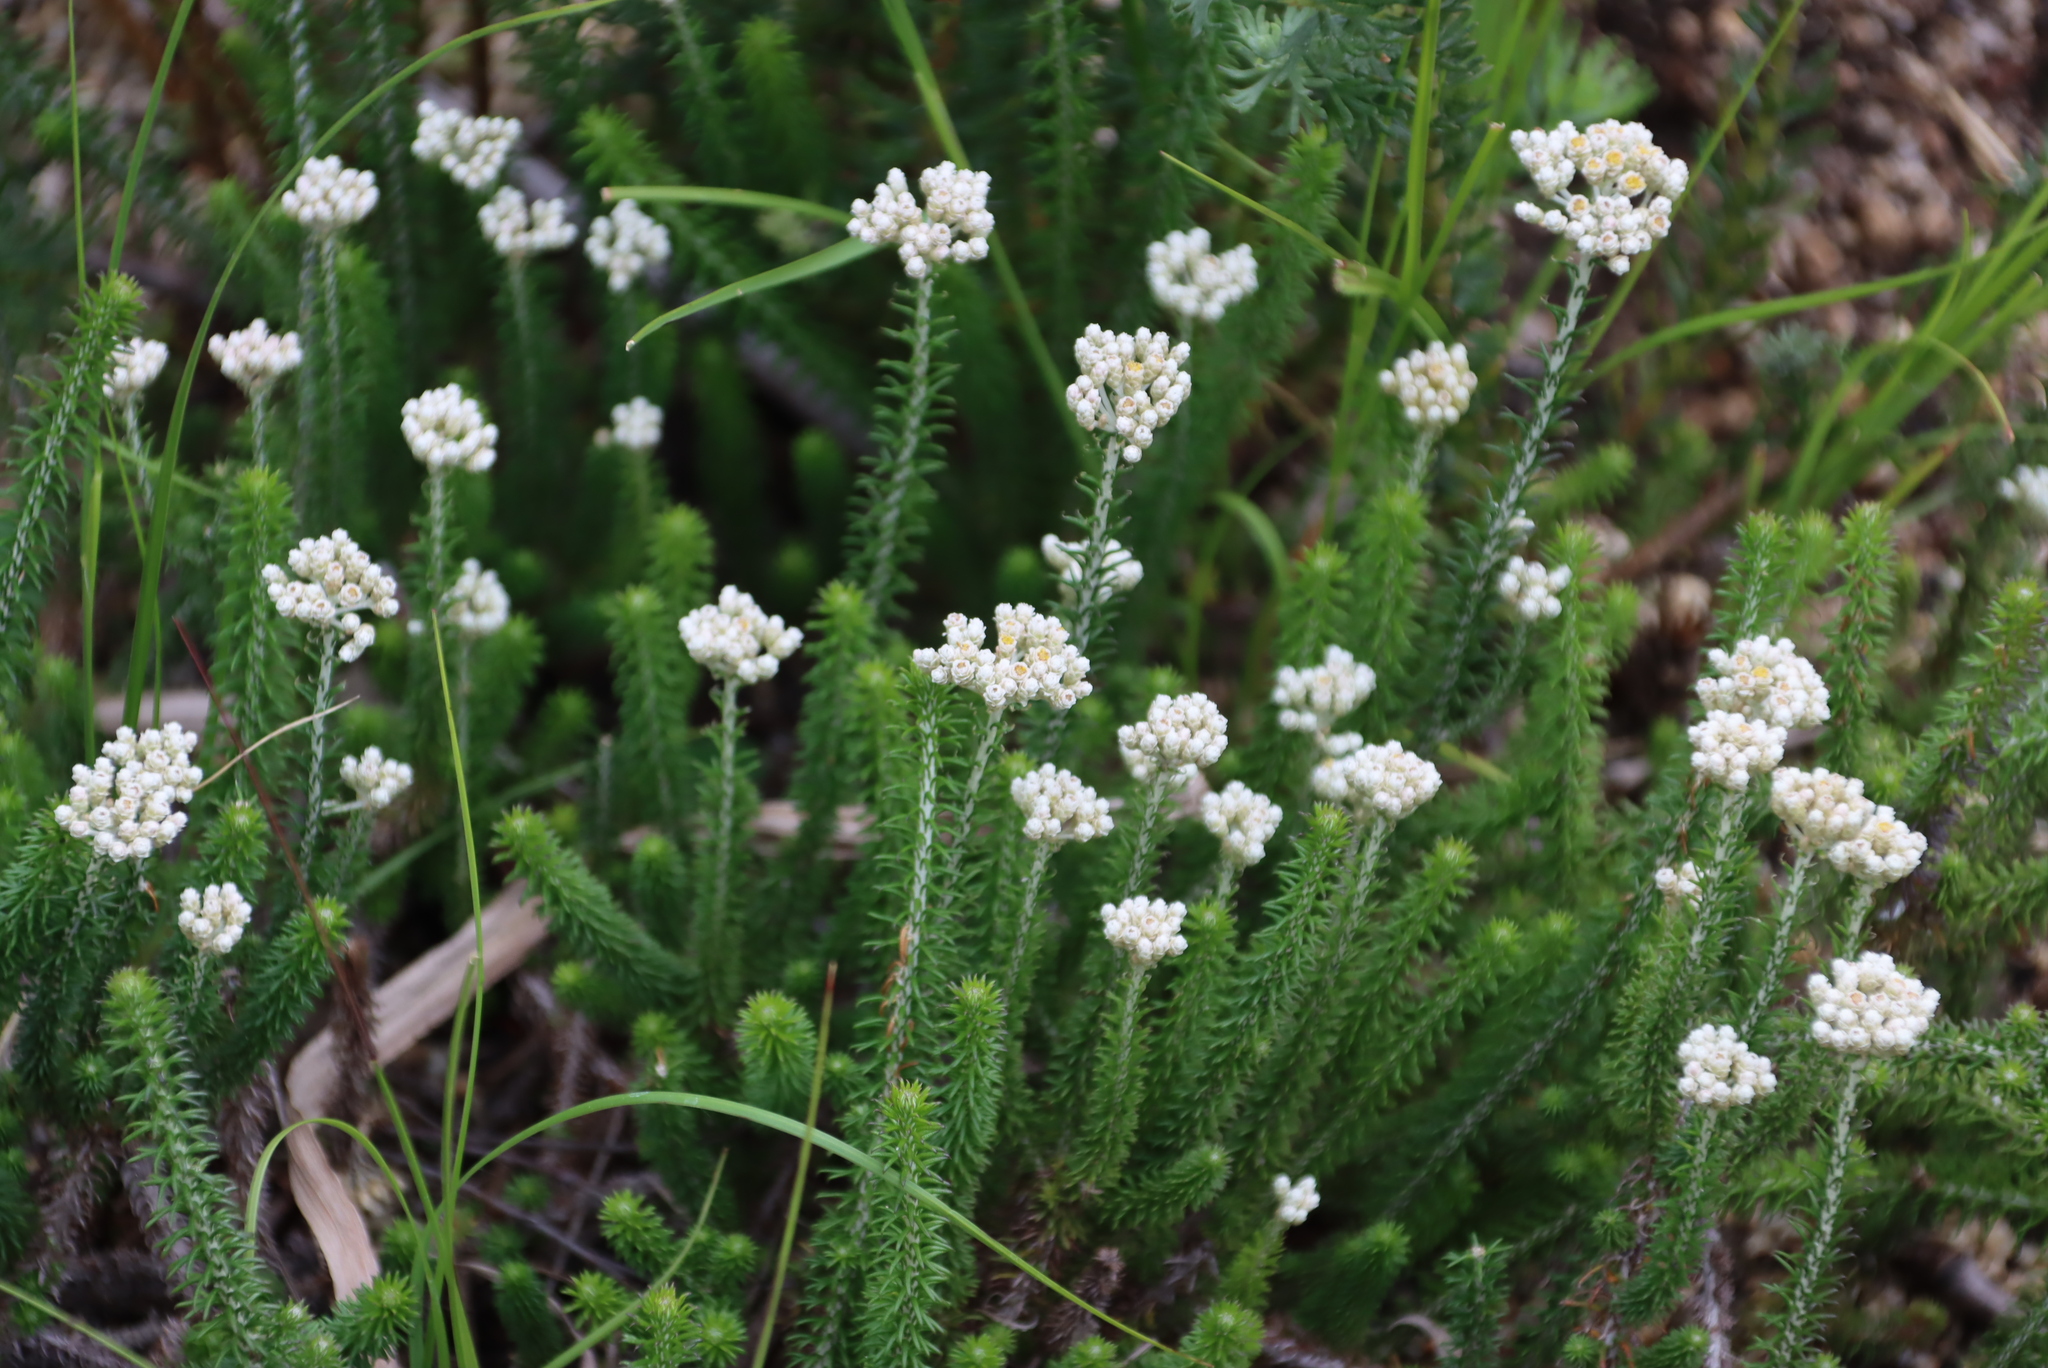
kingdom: Plantae
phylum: Tracheophyta
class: Magnoliopsida
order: Asterales
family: Asteraceae
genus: Helichrysum
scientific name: Helichrysum teretifolium
